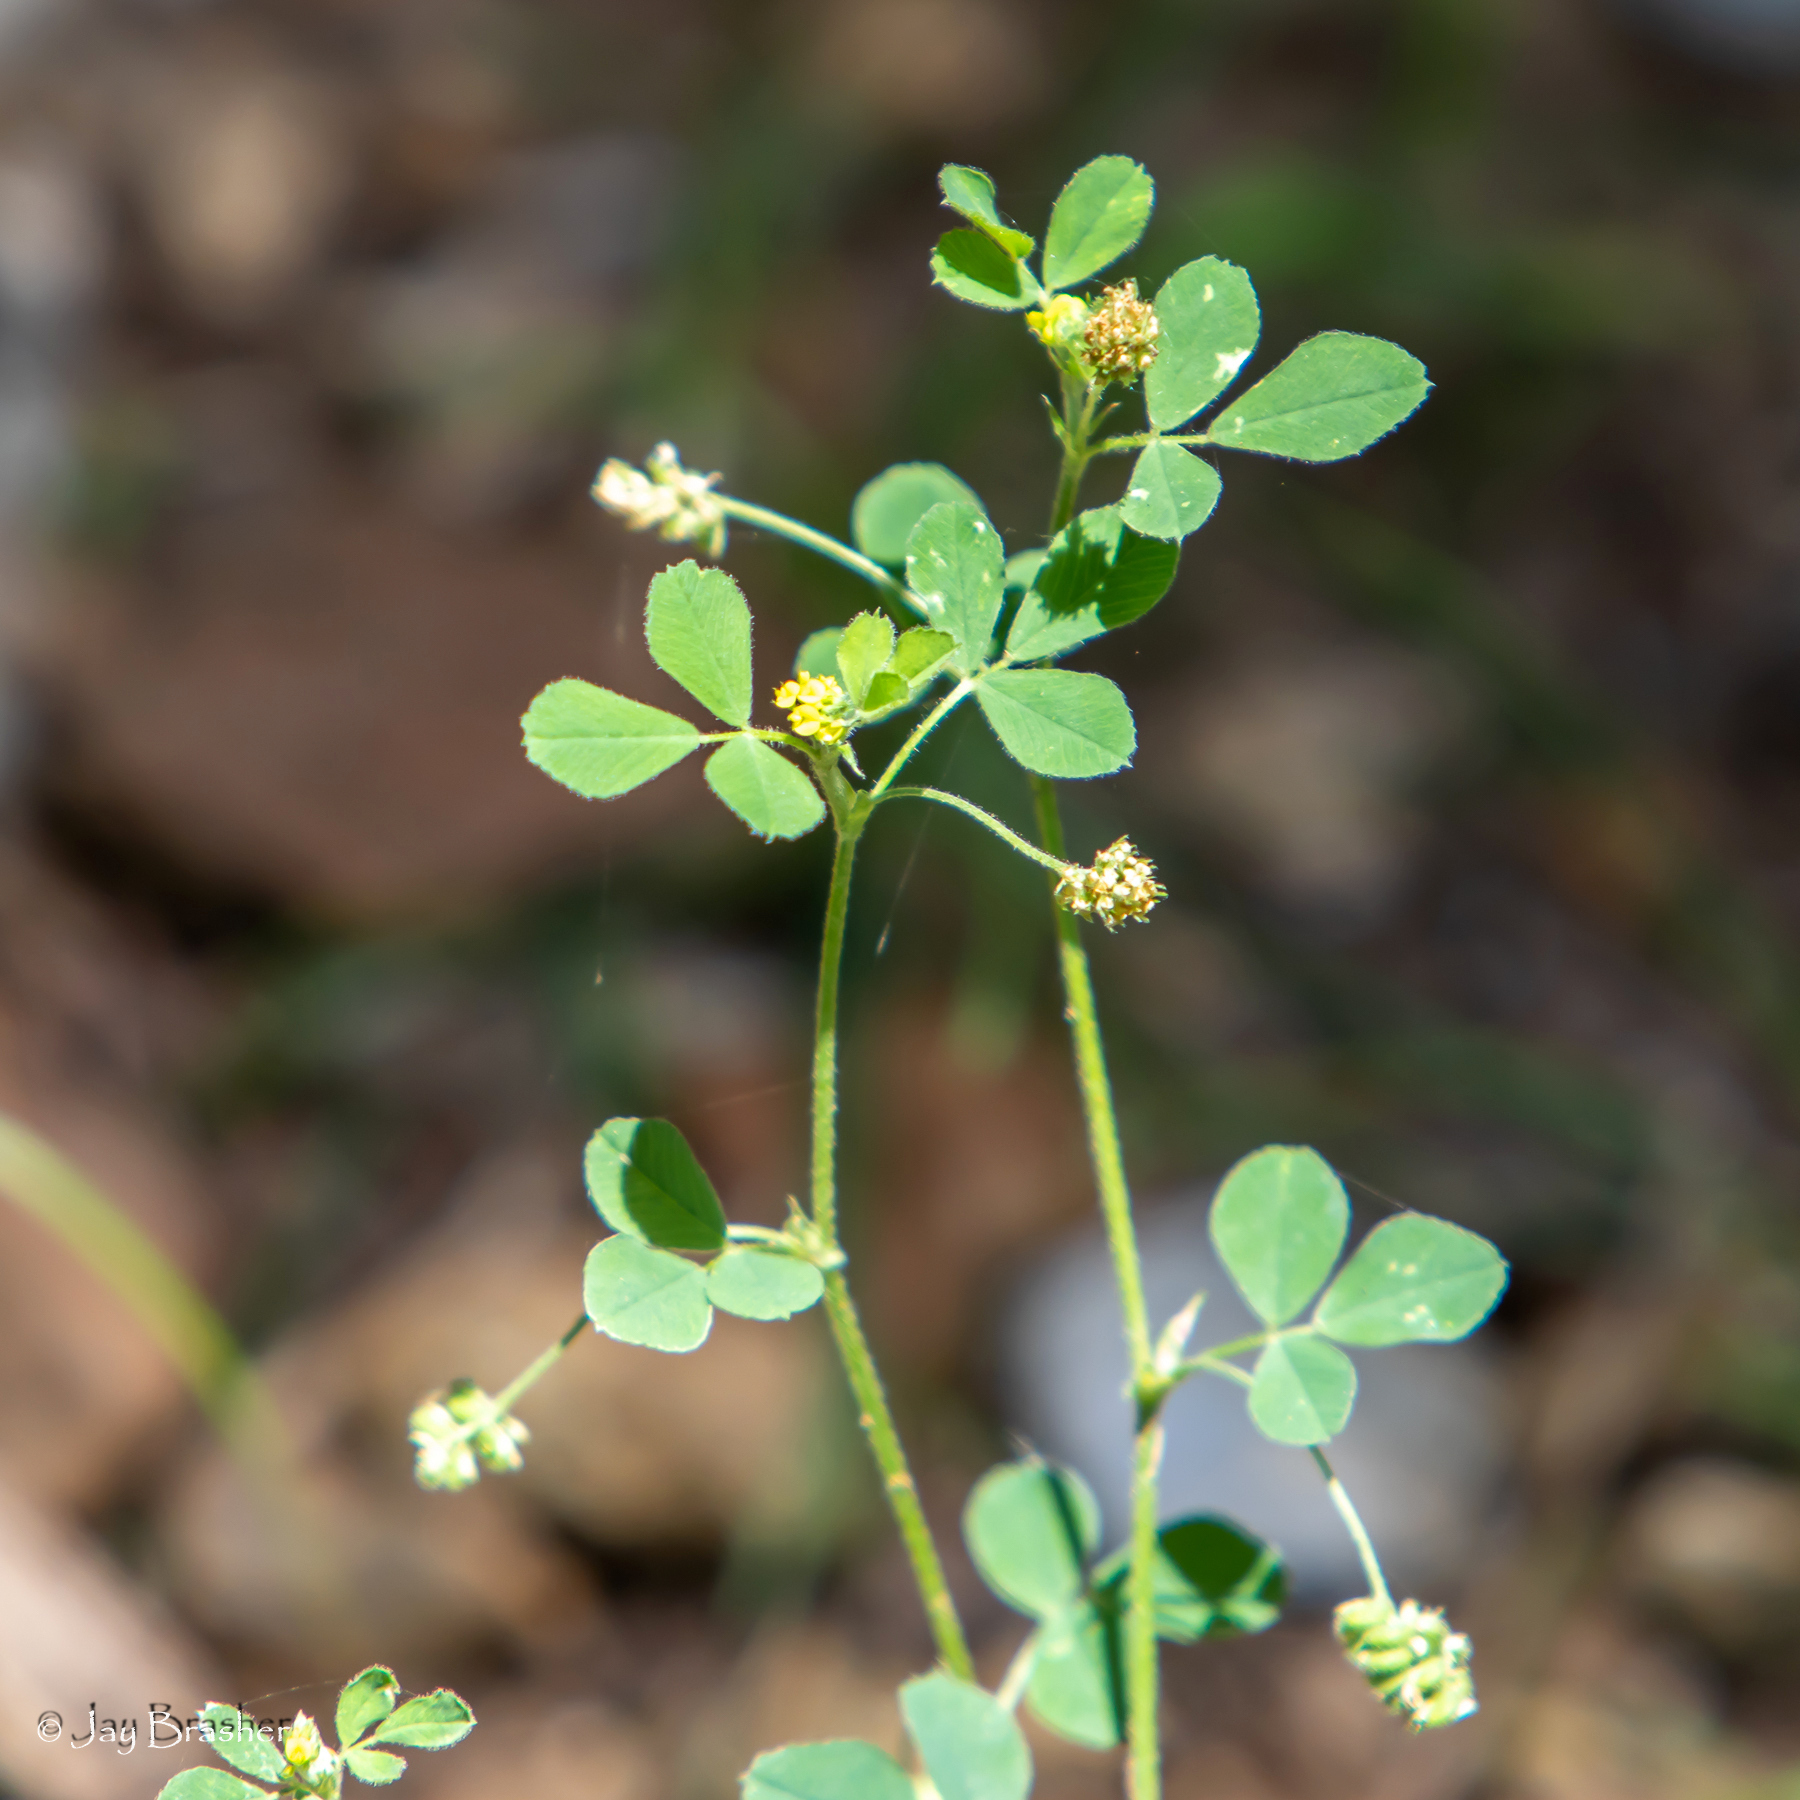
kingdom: Plantae
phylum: Tracheophyta
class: Magnoliopsida
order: Fabales
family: Fabaceae
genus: Medicago
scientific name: Medicago lupulina
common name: Black medick
